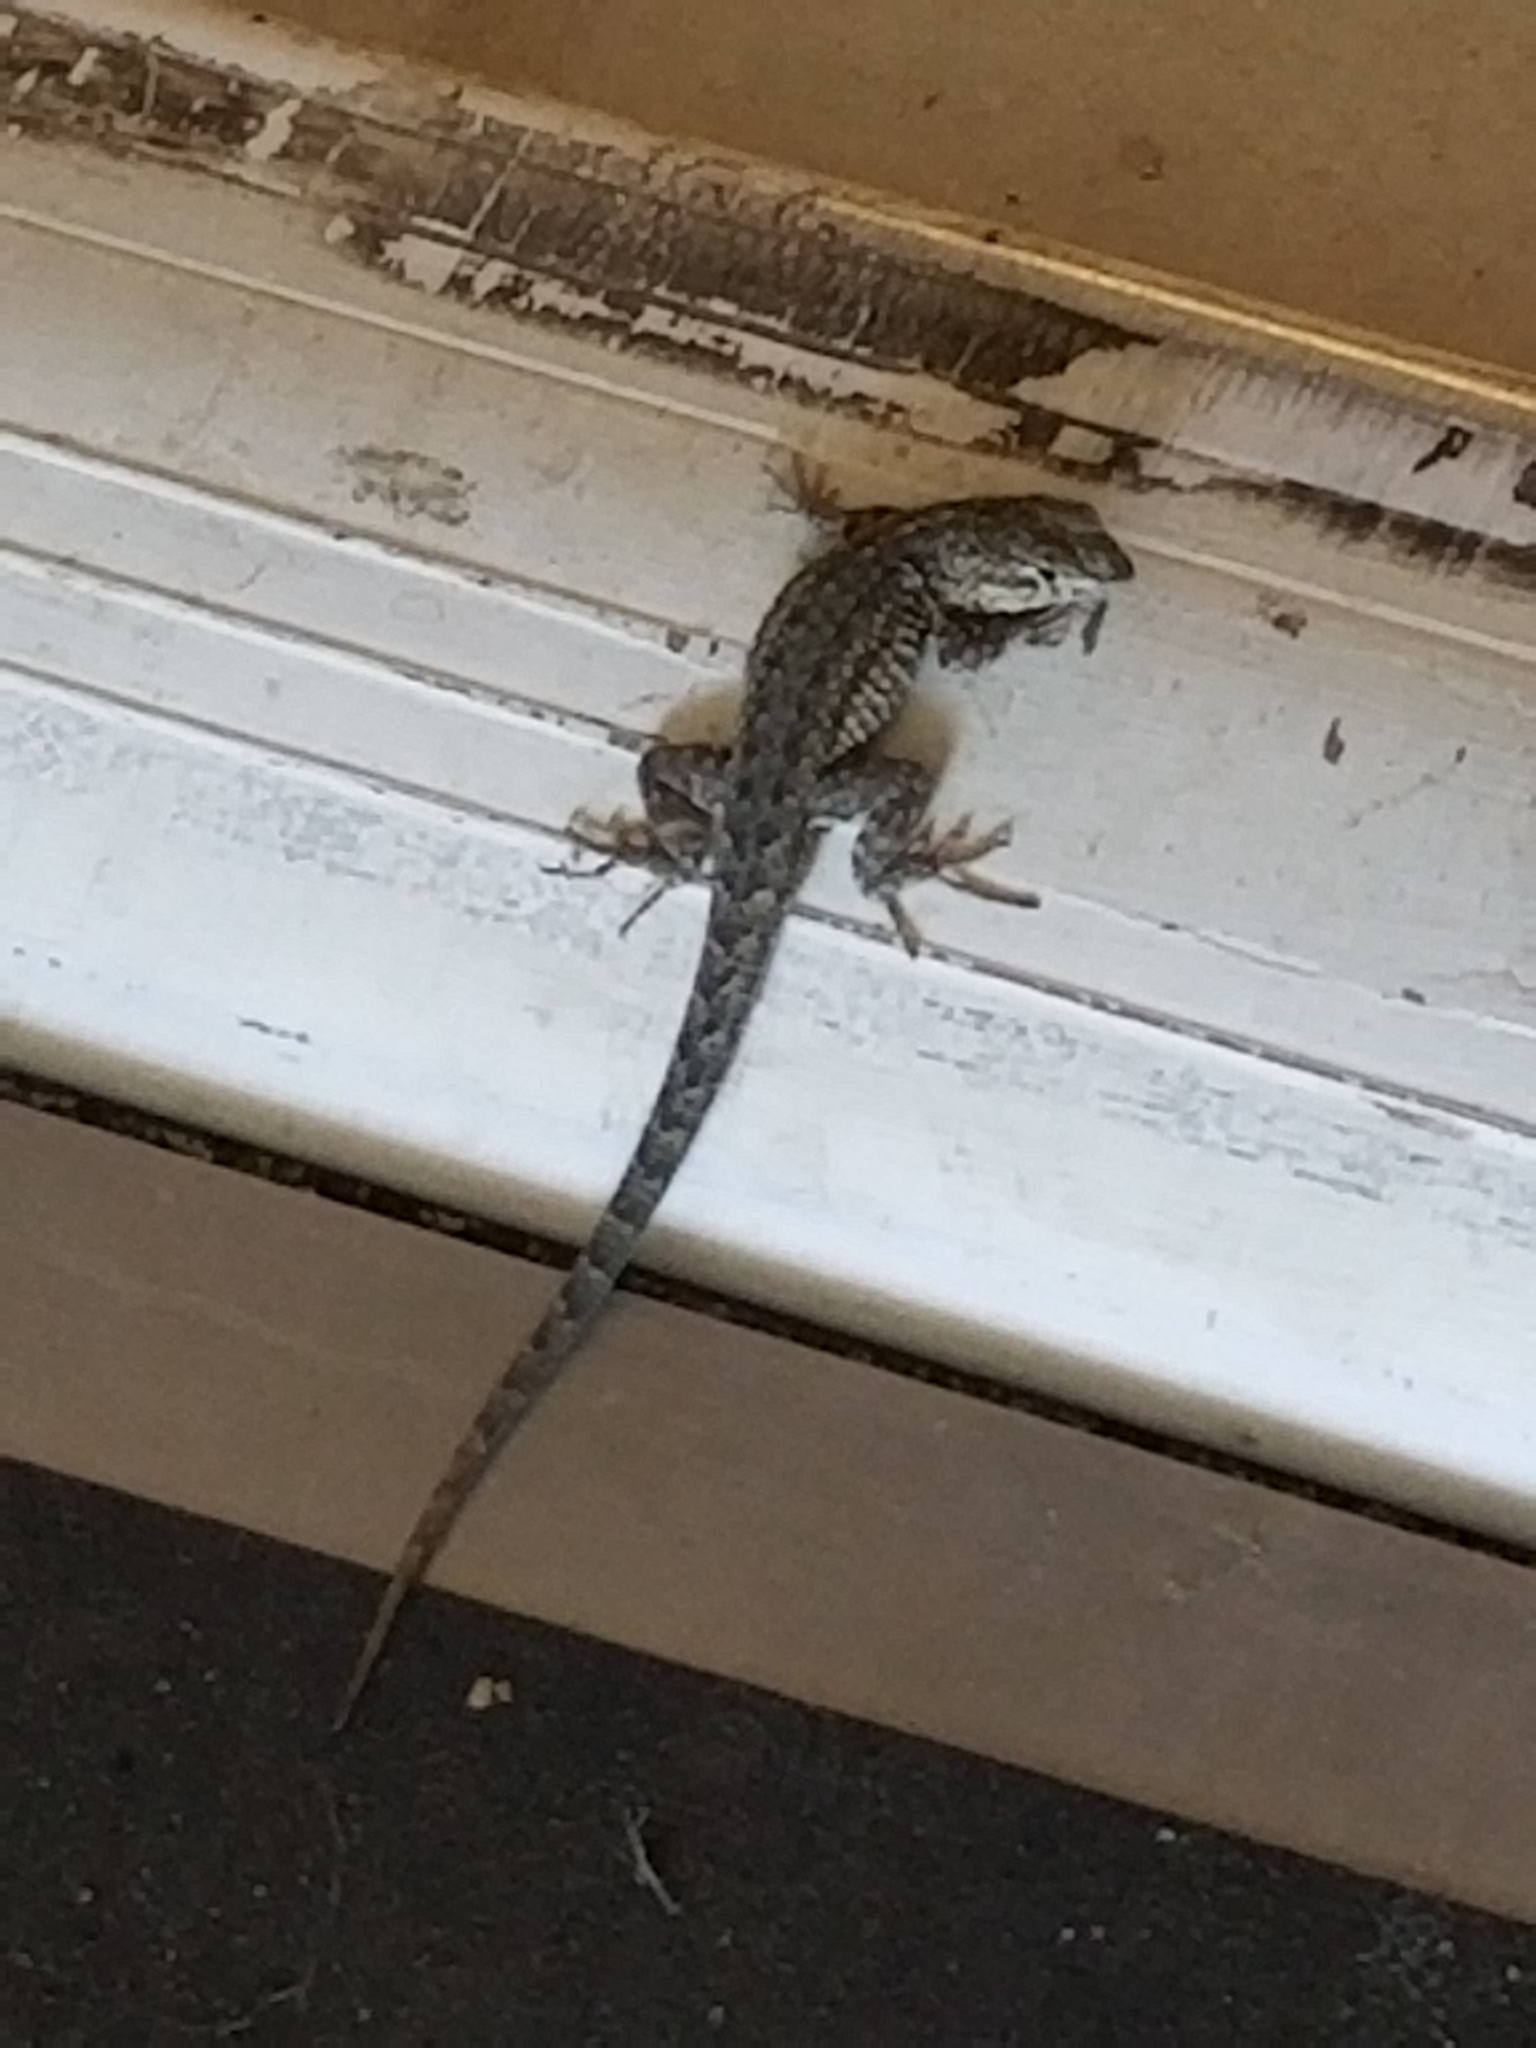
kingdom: Animalia
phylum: Chordata
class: Squamata
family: Phrynosomatidae
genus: Uta
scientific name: Uta stansburiana
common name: Side-blotched lizard
